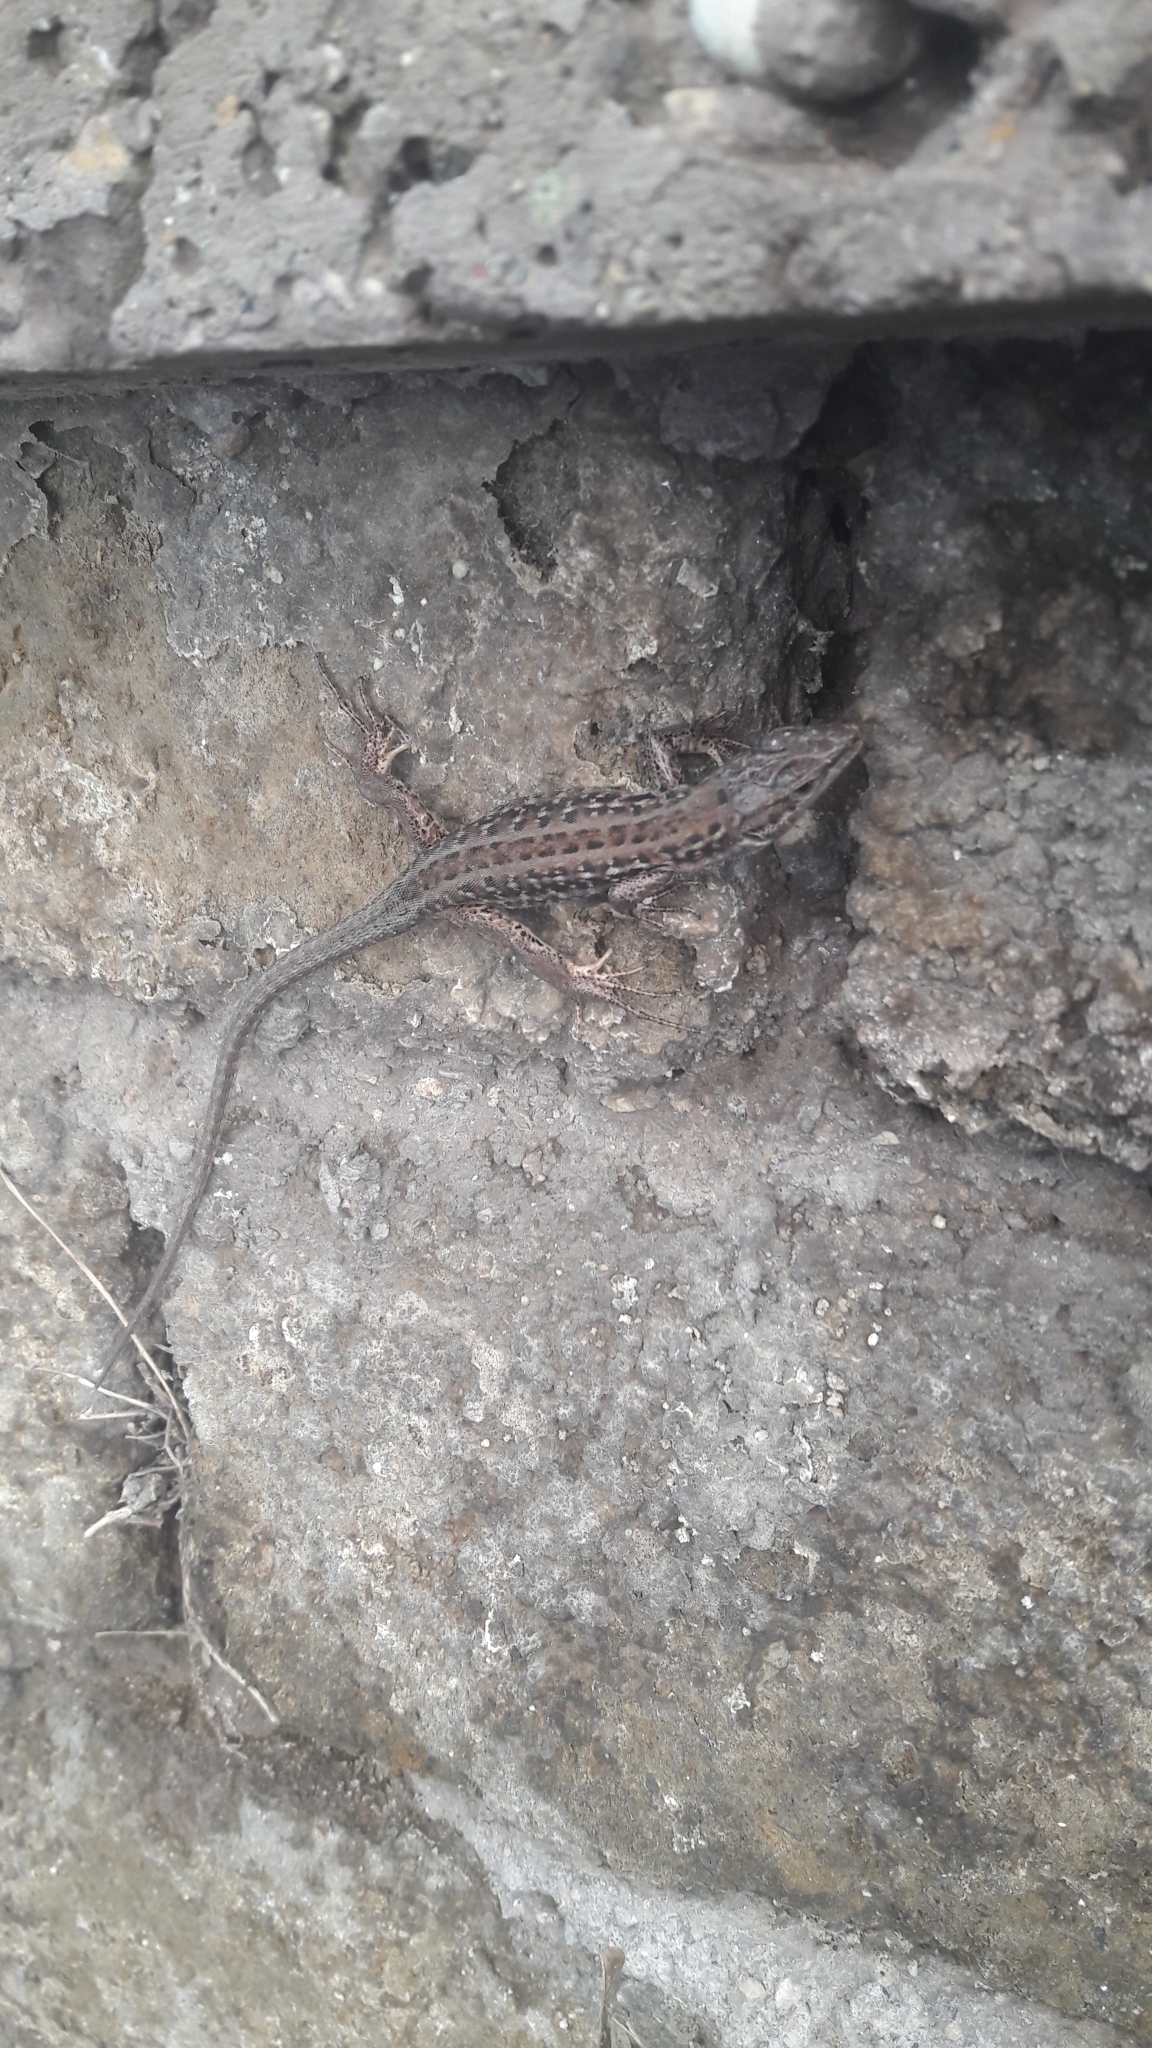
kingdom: Animalia
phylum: Chordata
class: Squamata
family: Lacertidae
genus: Podarcis
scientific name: Podarcis siculus
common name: Italian wall lizard
